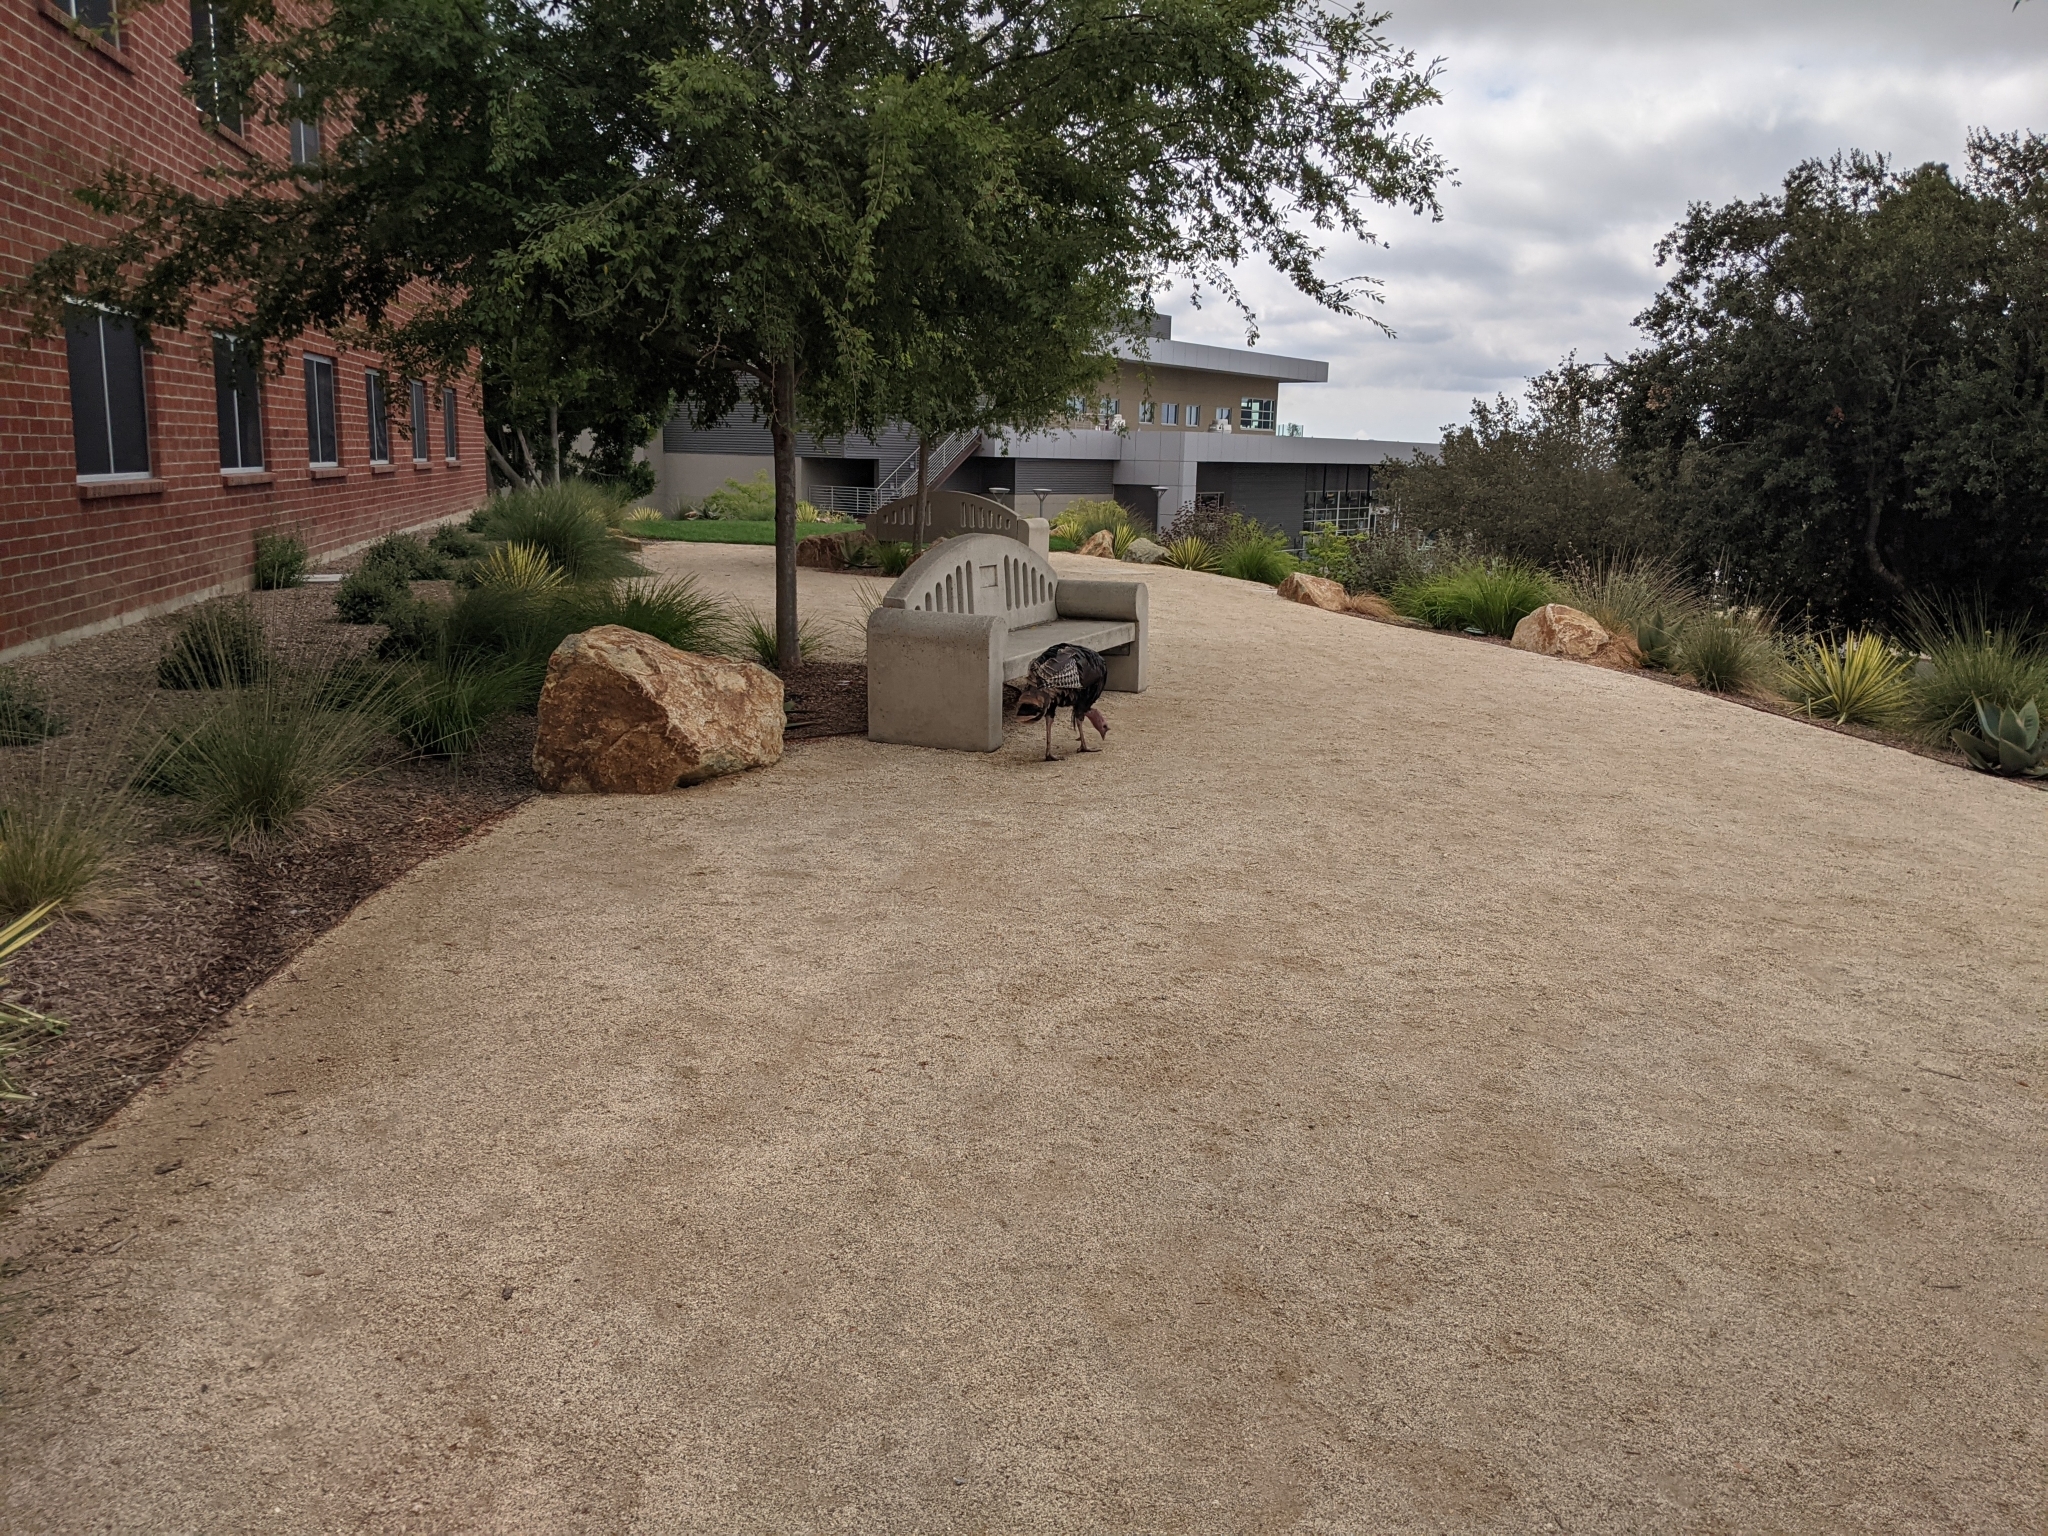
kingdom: Animalia
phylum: Chordata
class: Aves
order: Galliformes
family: Phasianidae
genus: Meleagris
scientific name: Meleagris gallopavo
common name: Wild turkey
